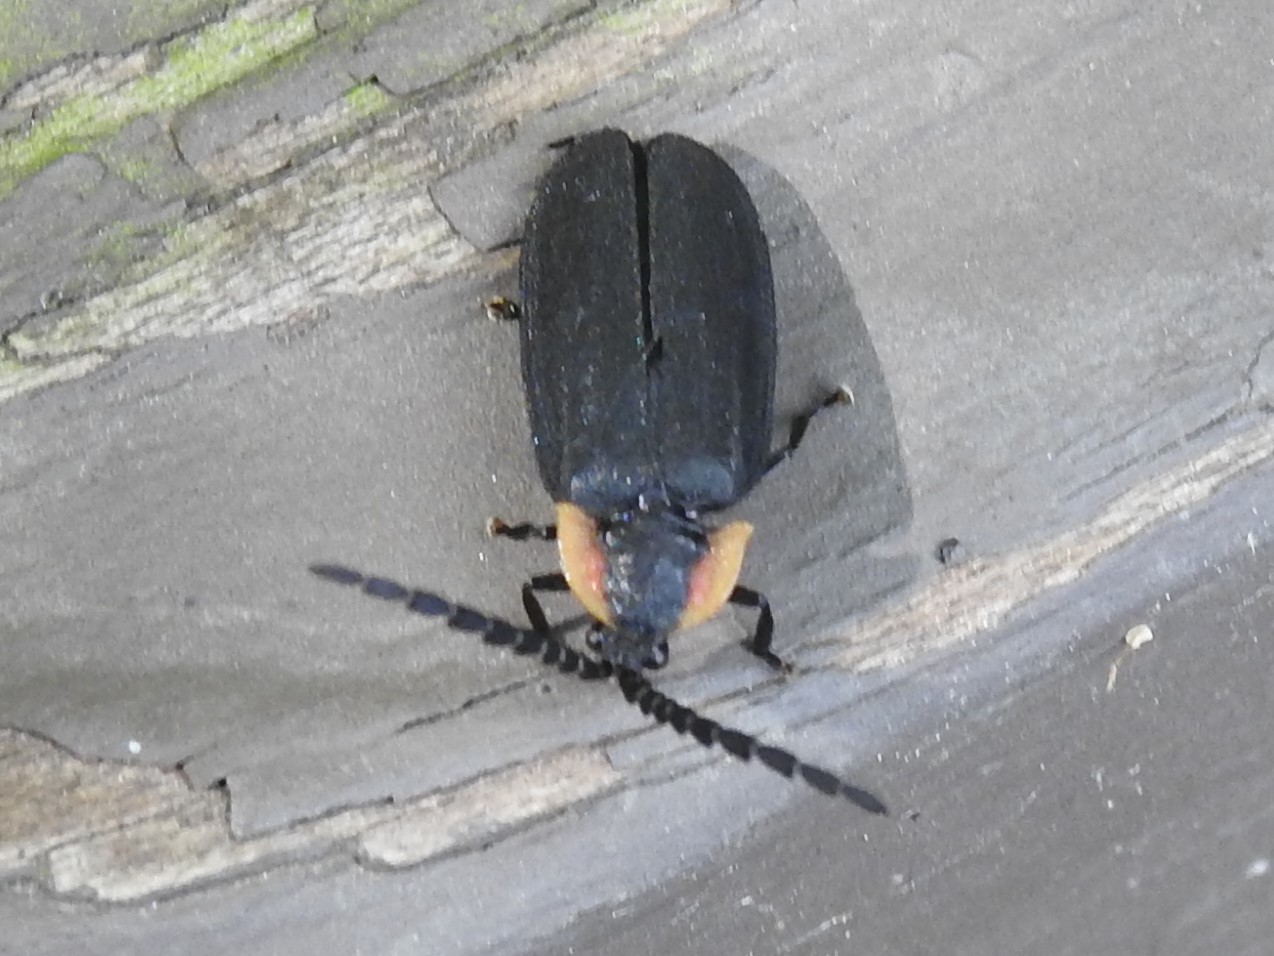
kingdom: Animalia
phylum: Arthropoda
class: Insecta
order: Coleoptera
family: Lampyridae
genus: Lucidota
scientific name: Lucidota atra
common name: Black firefly
